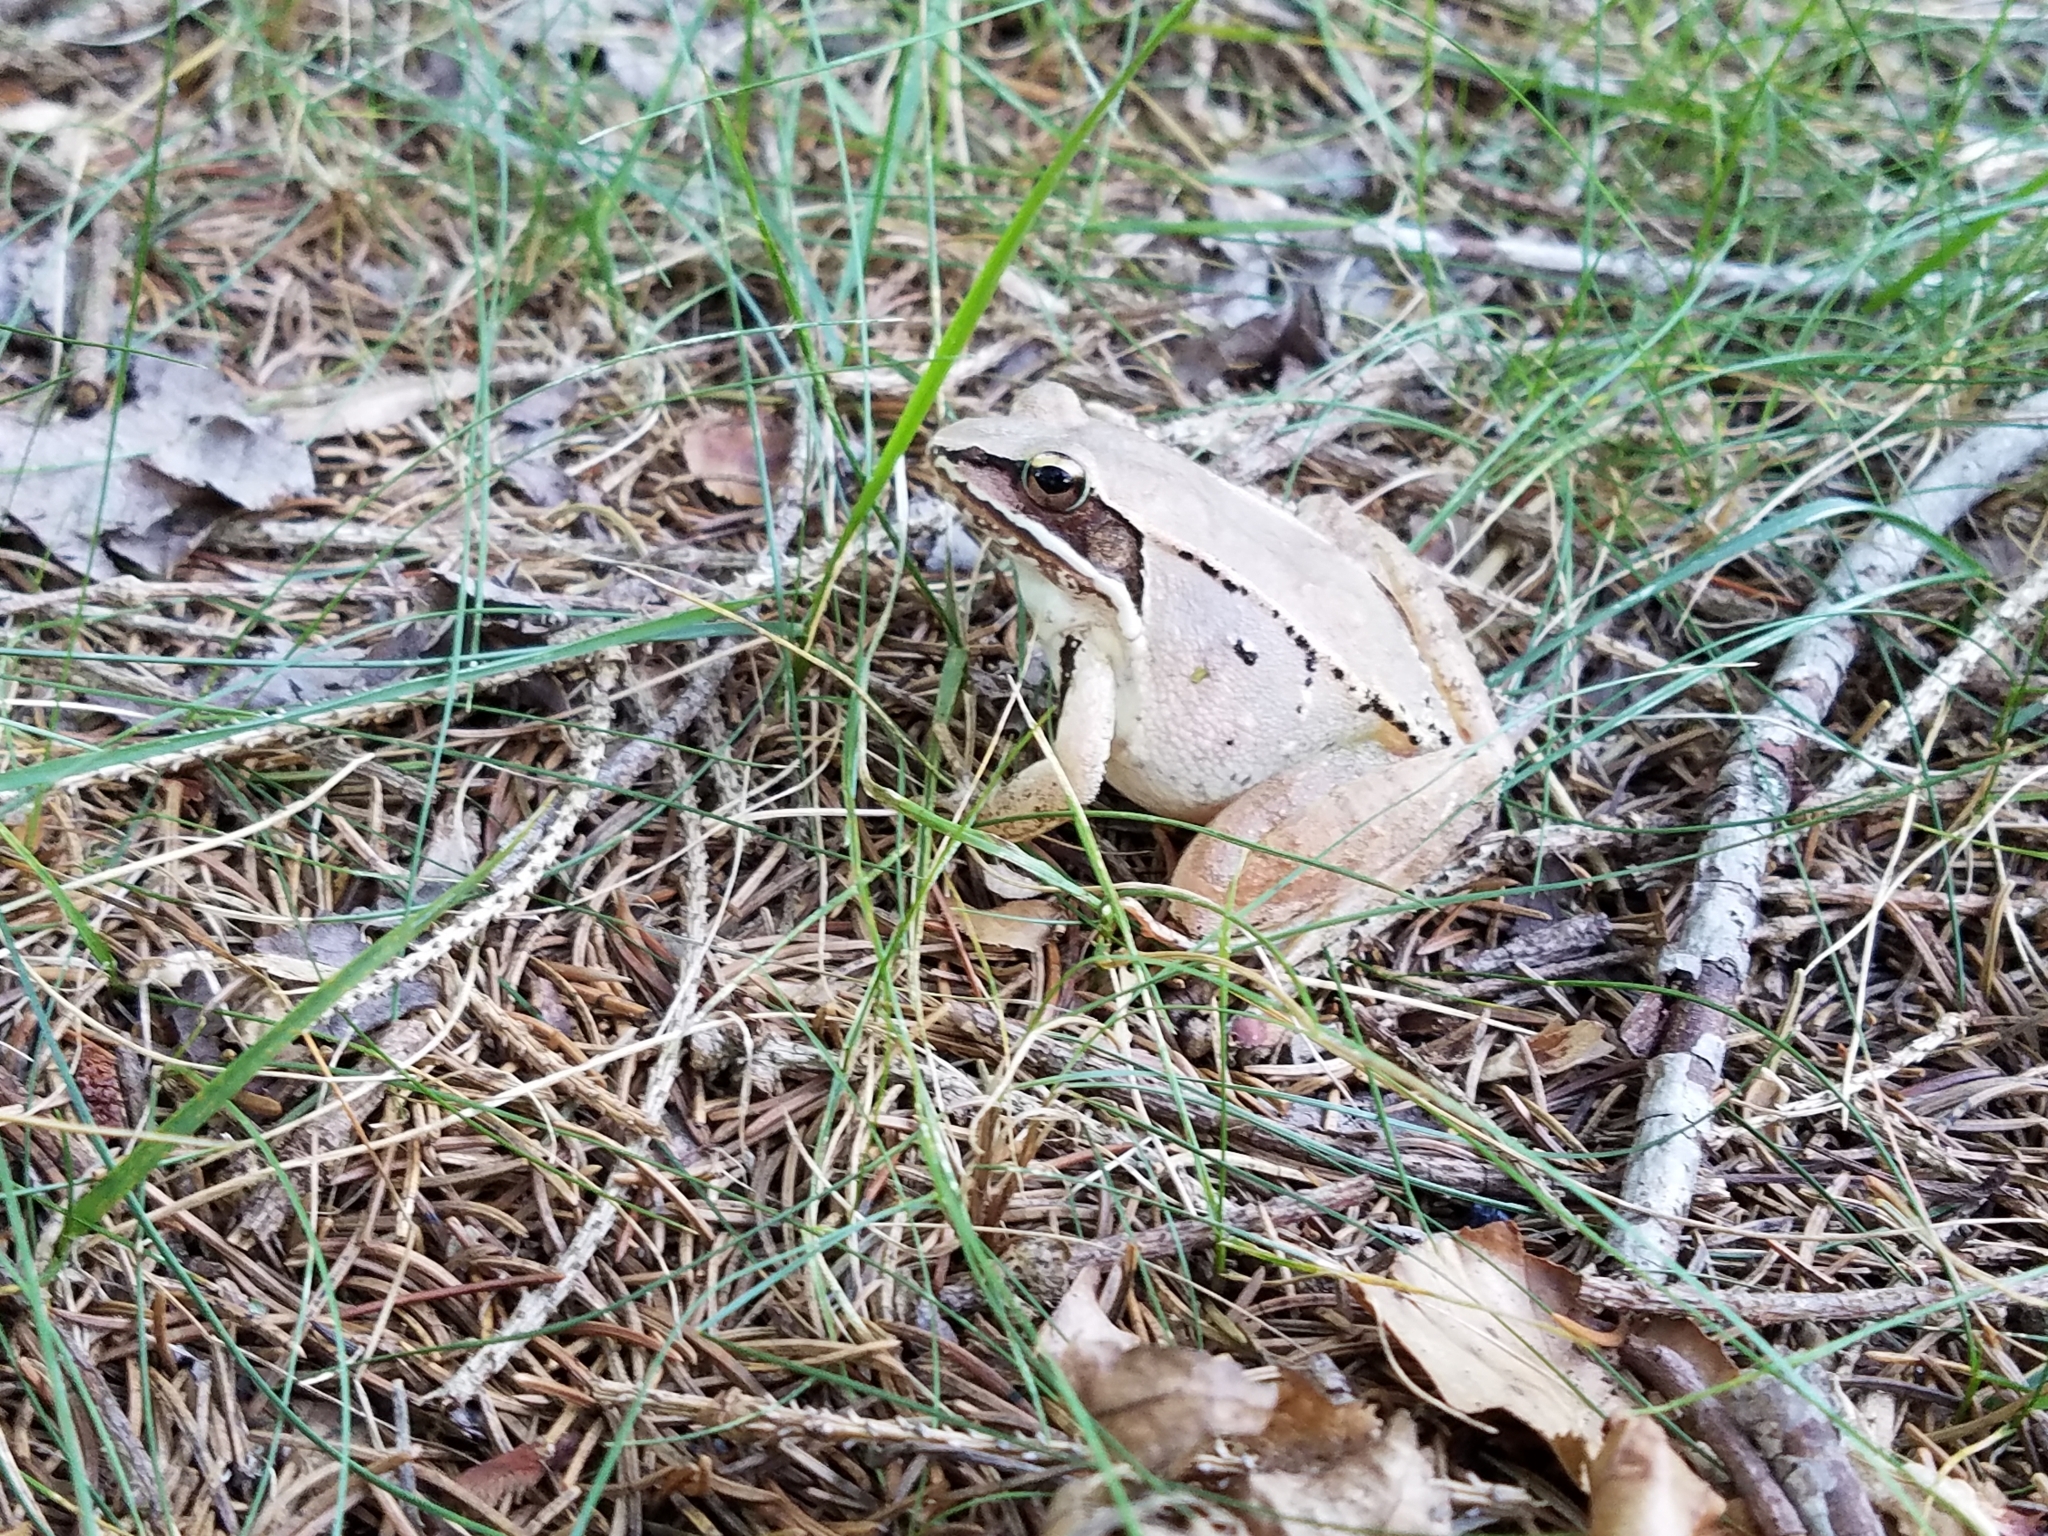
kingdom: Animalia
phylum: Chordata
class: Amphibia
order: Anura
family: Ranidae
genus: Lithobates
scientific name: Lithobates sylvaticus
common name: Wood frog
